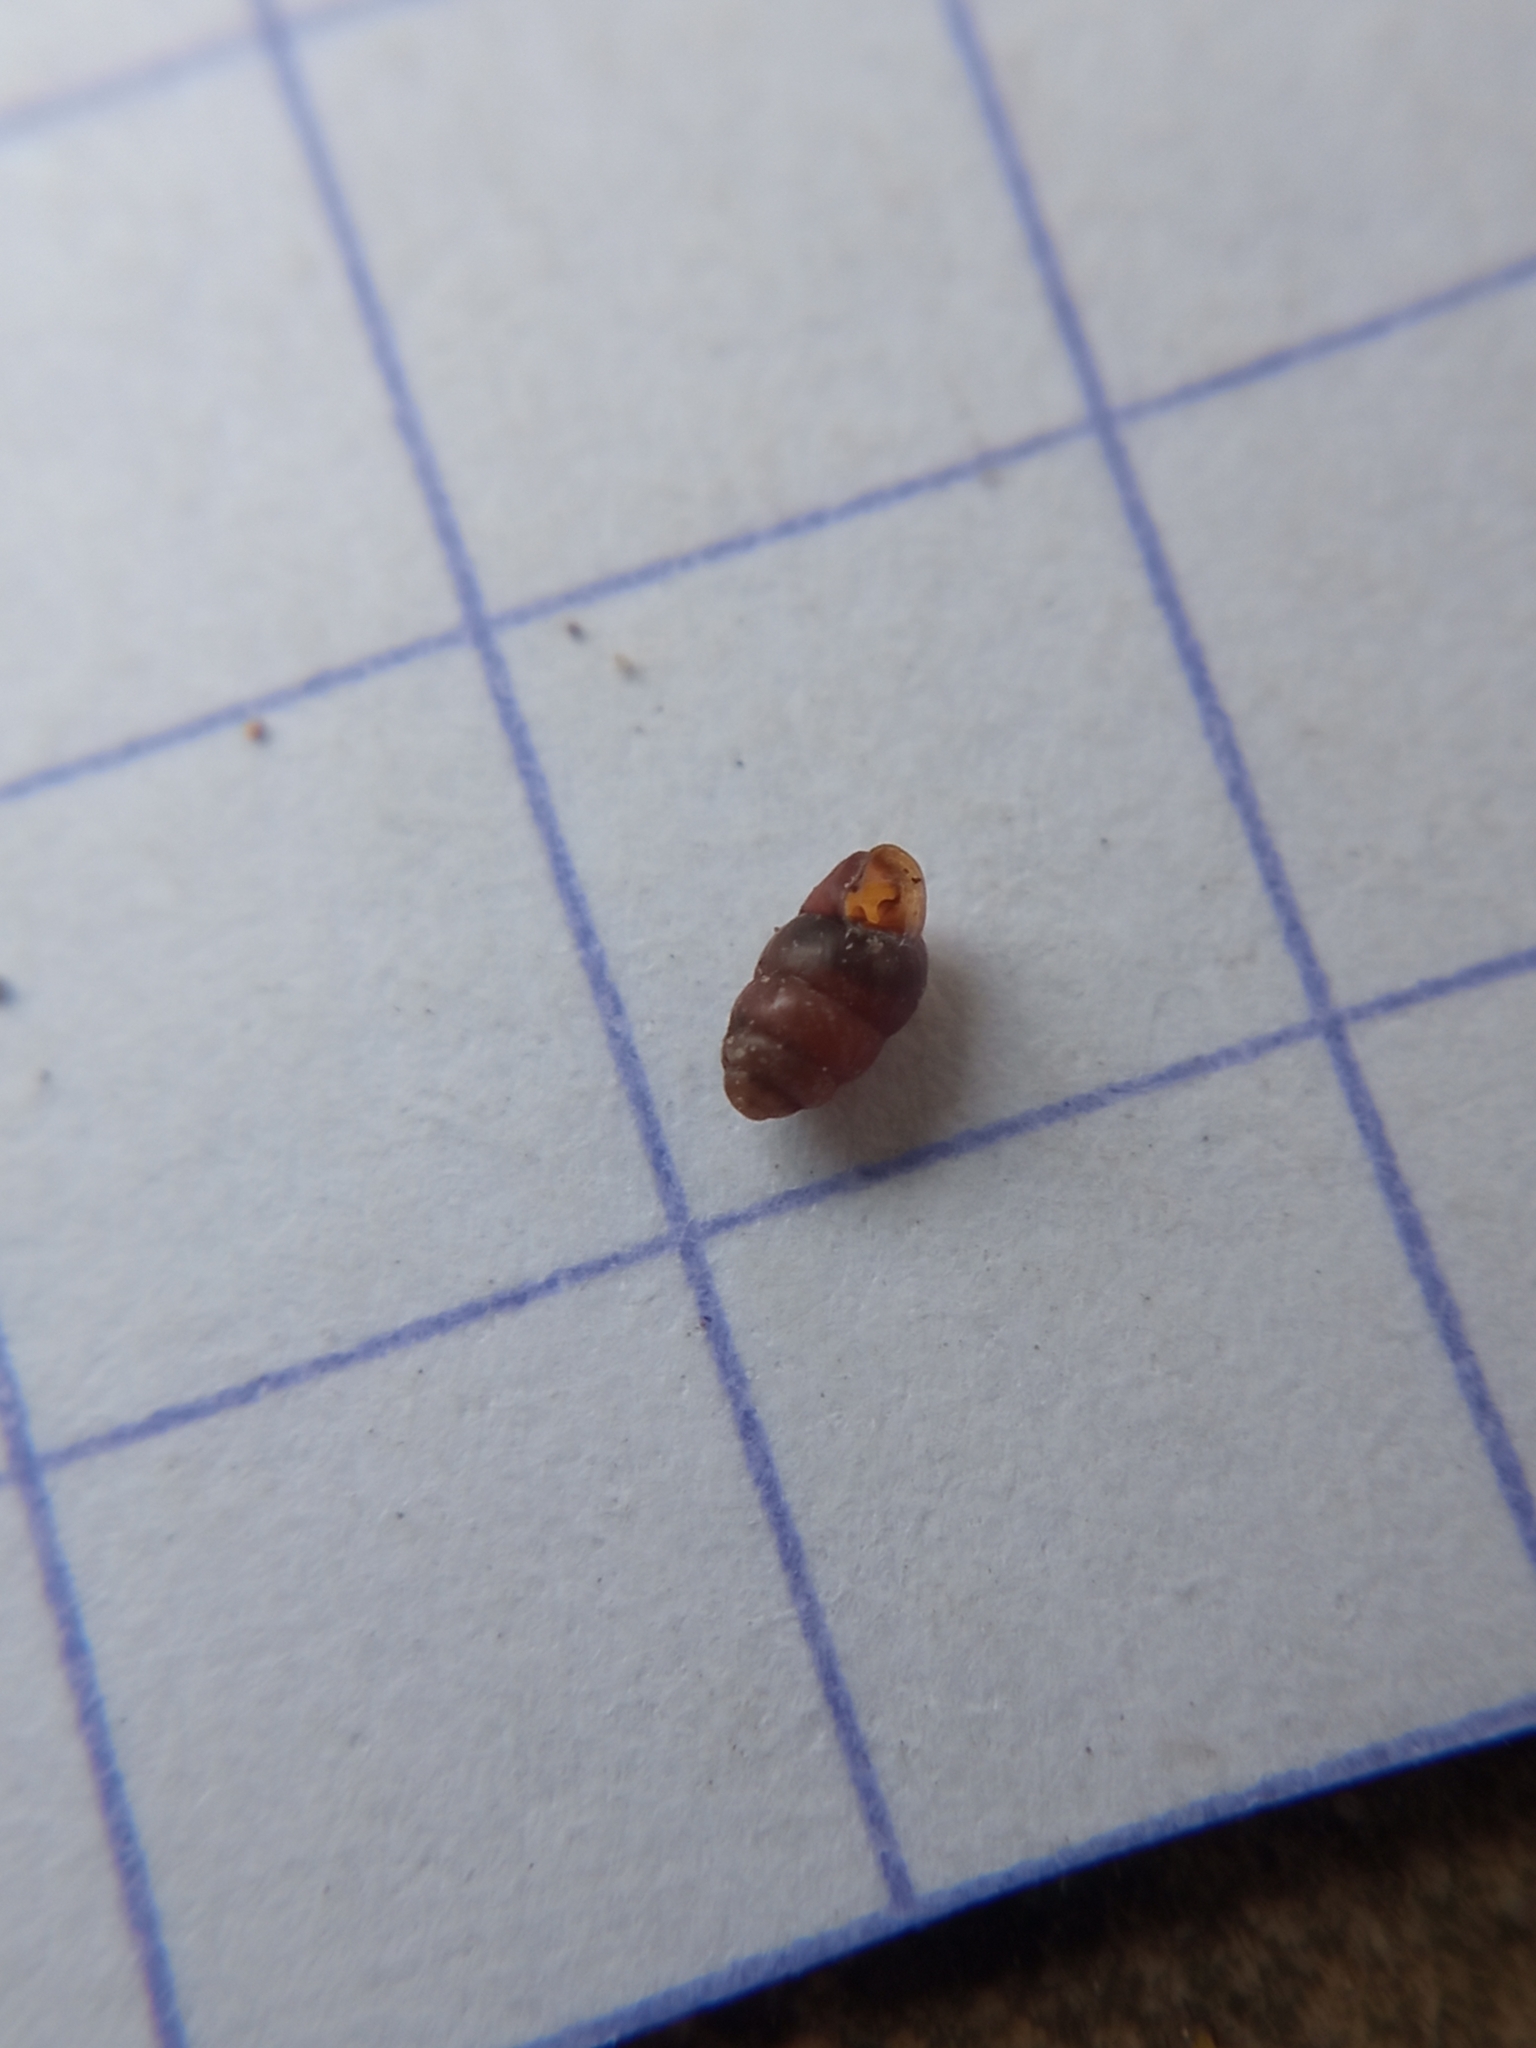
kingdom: Animalia
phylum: Mollusca
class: Gastropoda
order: Stylommatophora
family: Vertiginidae
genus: Vertigo
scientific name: Vertigo pygmaea
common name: Common whorl snail
